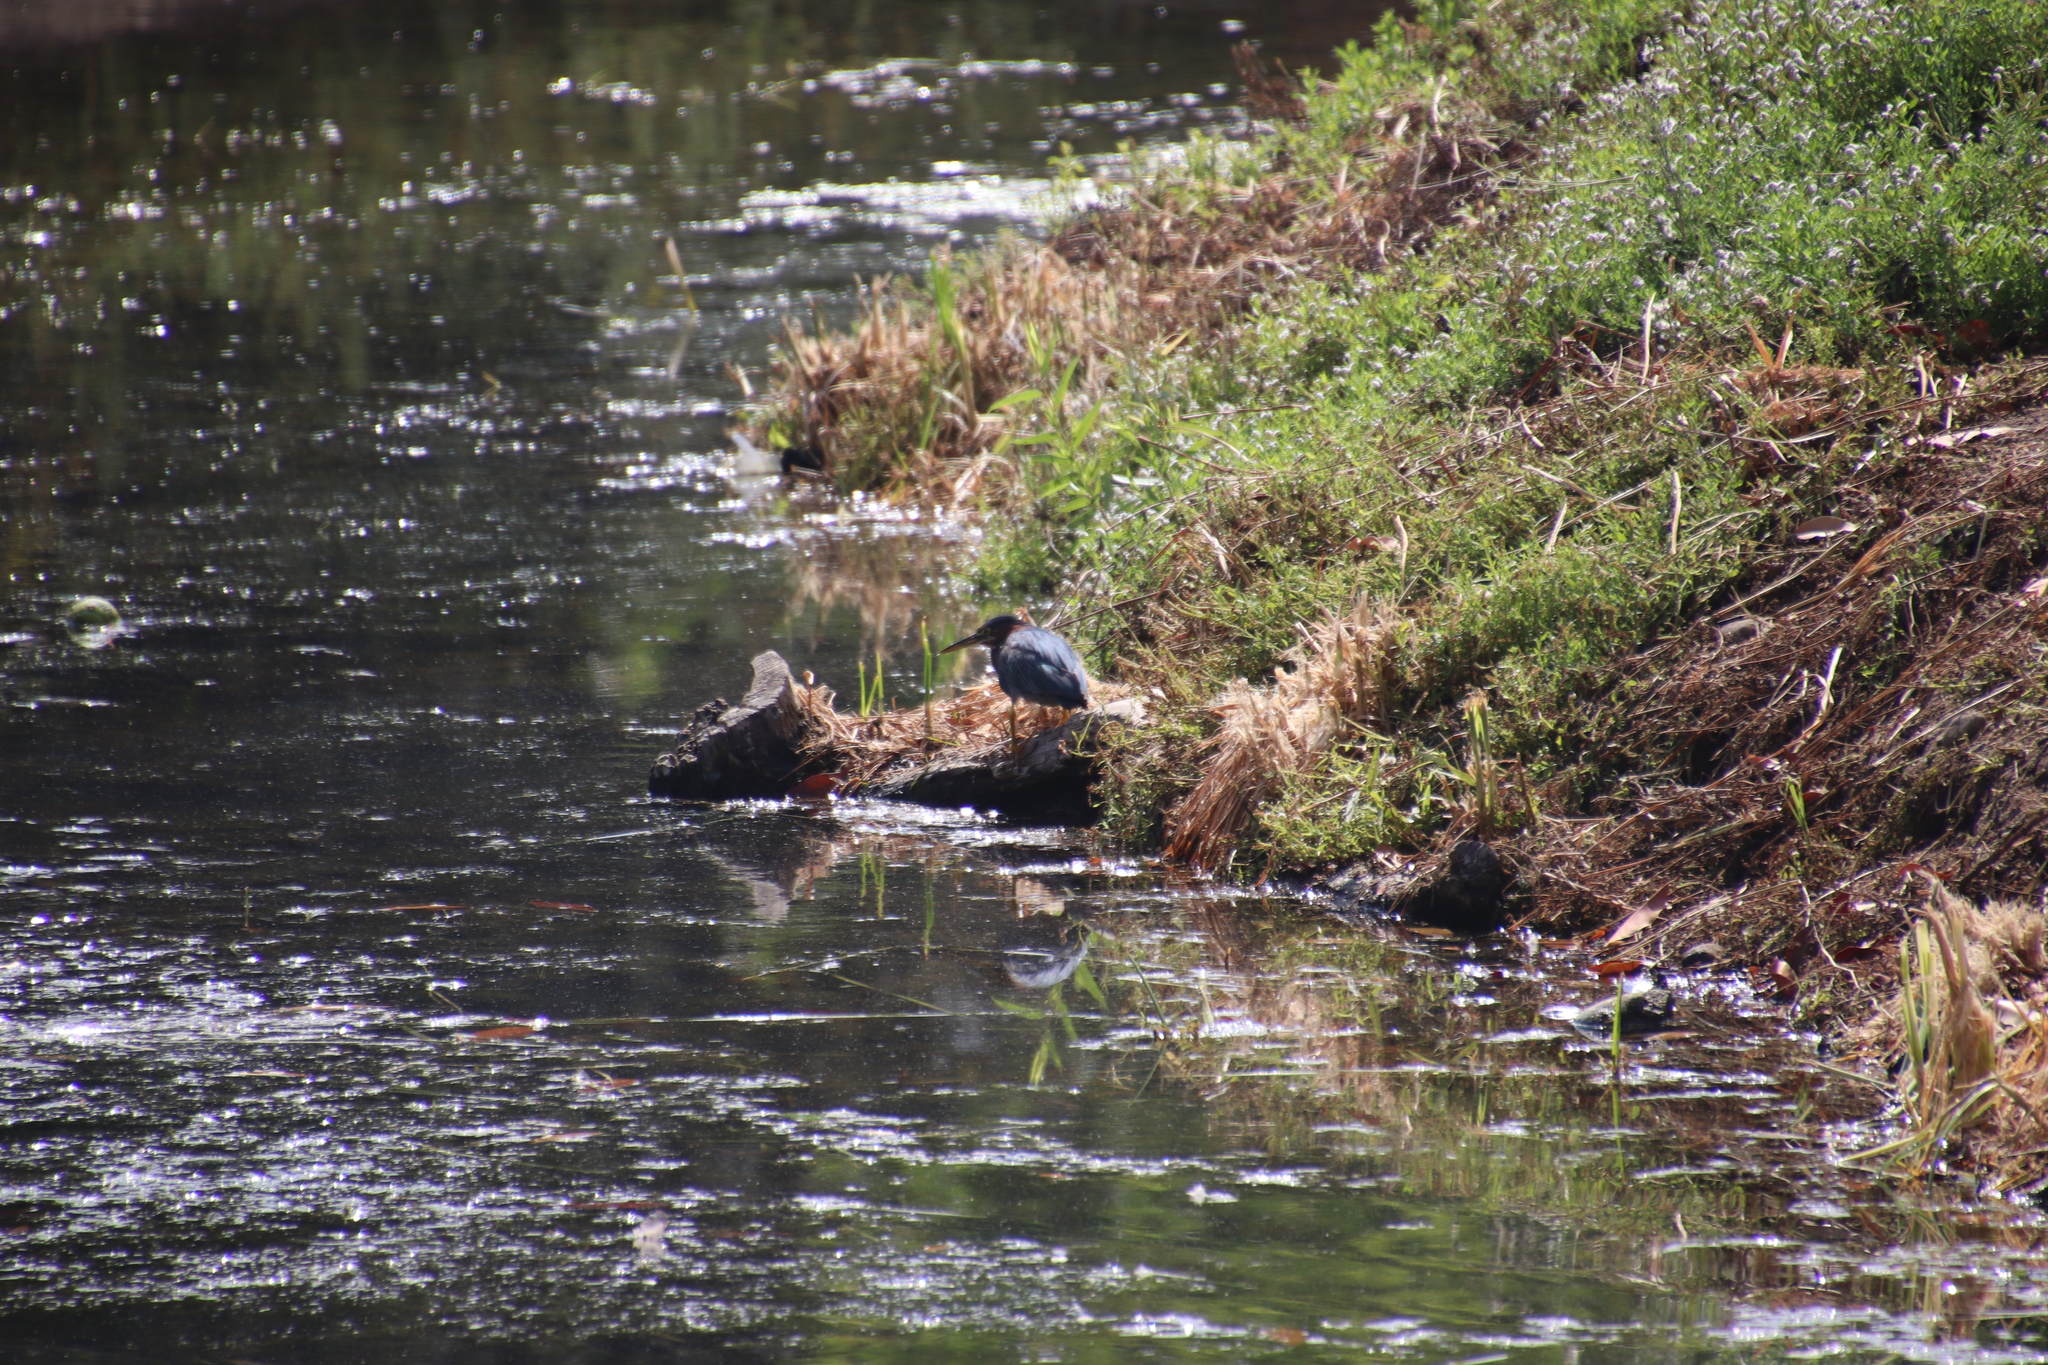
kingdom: Animalia
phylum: Chordata
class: Aves
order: Pelecaniformes
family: Ardeidae
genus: Butorides
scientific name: Butorides virescens
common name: Green heron
